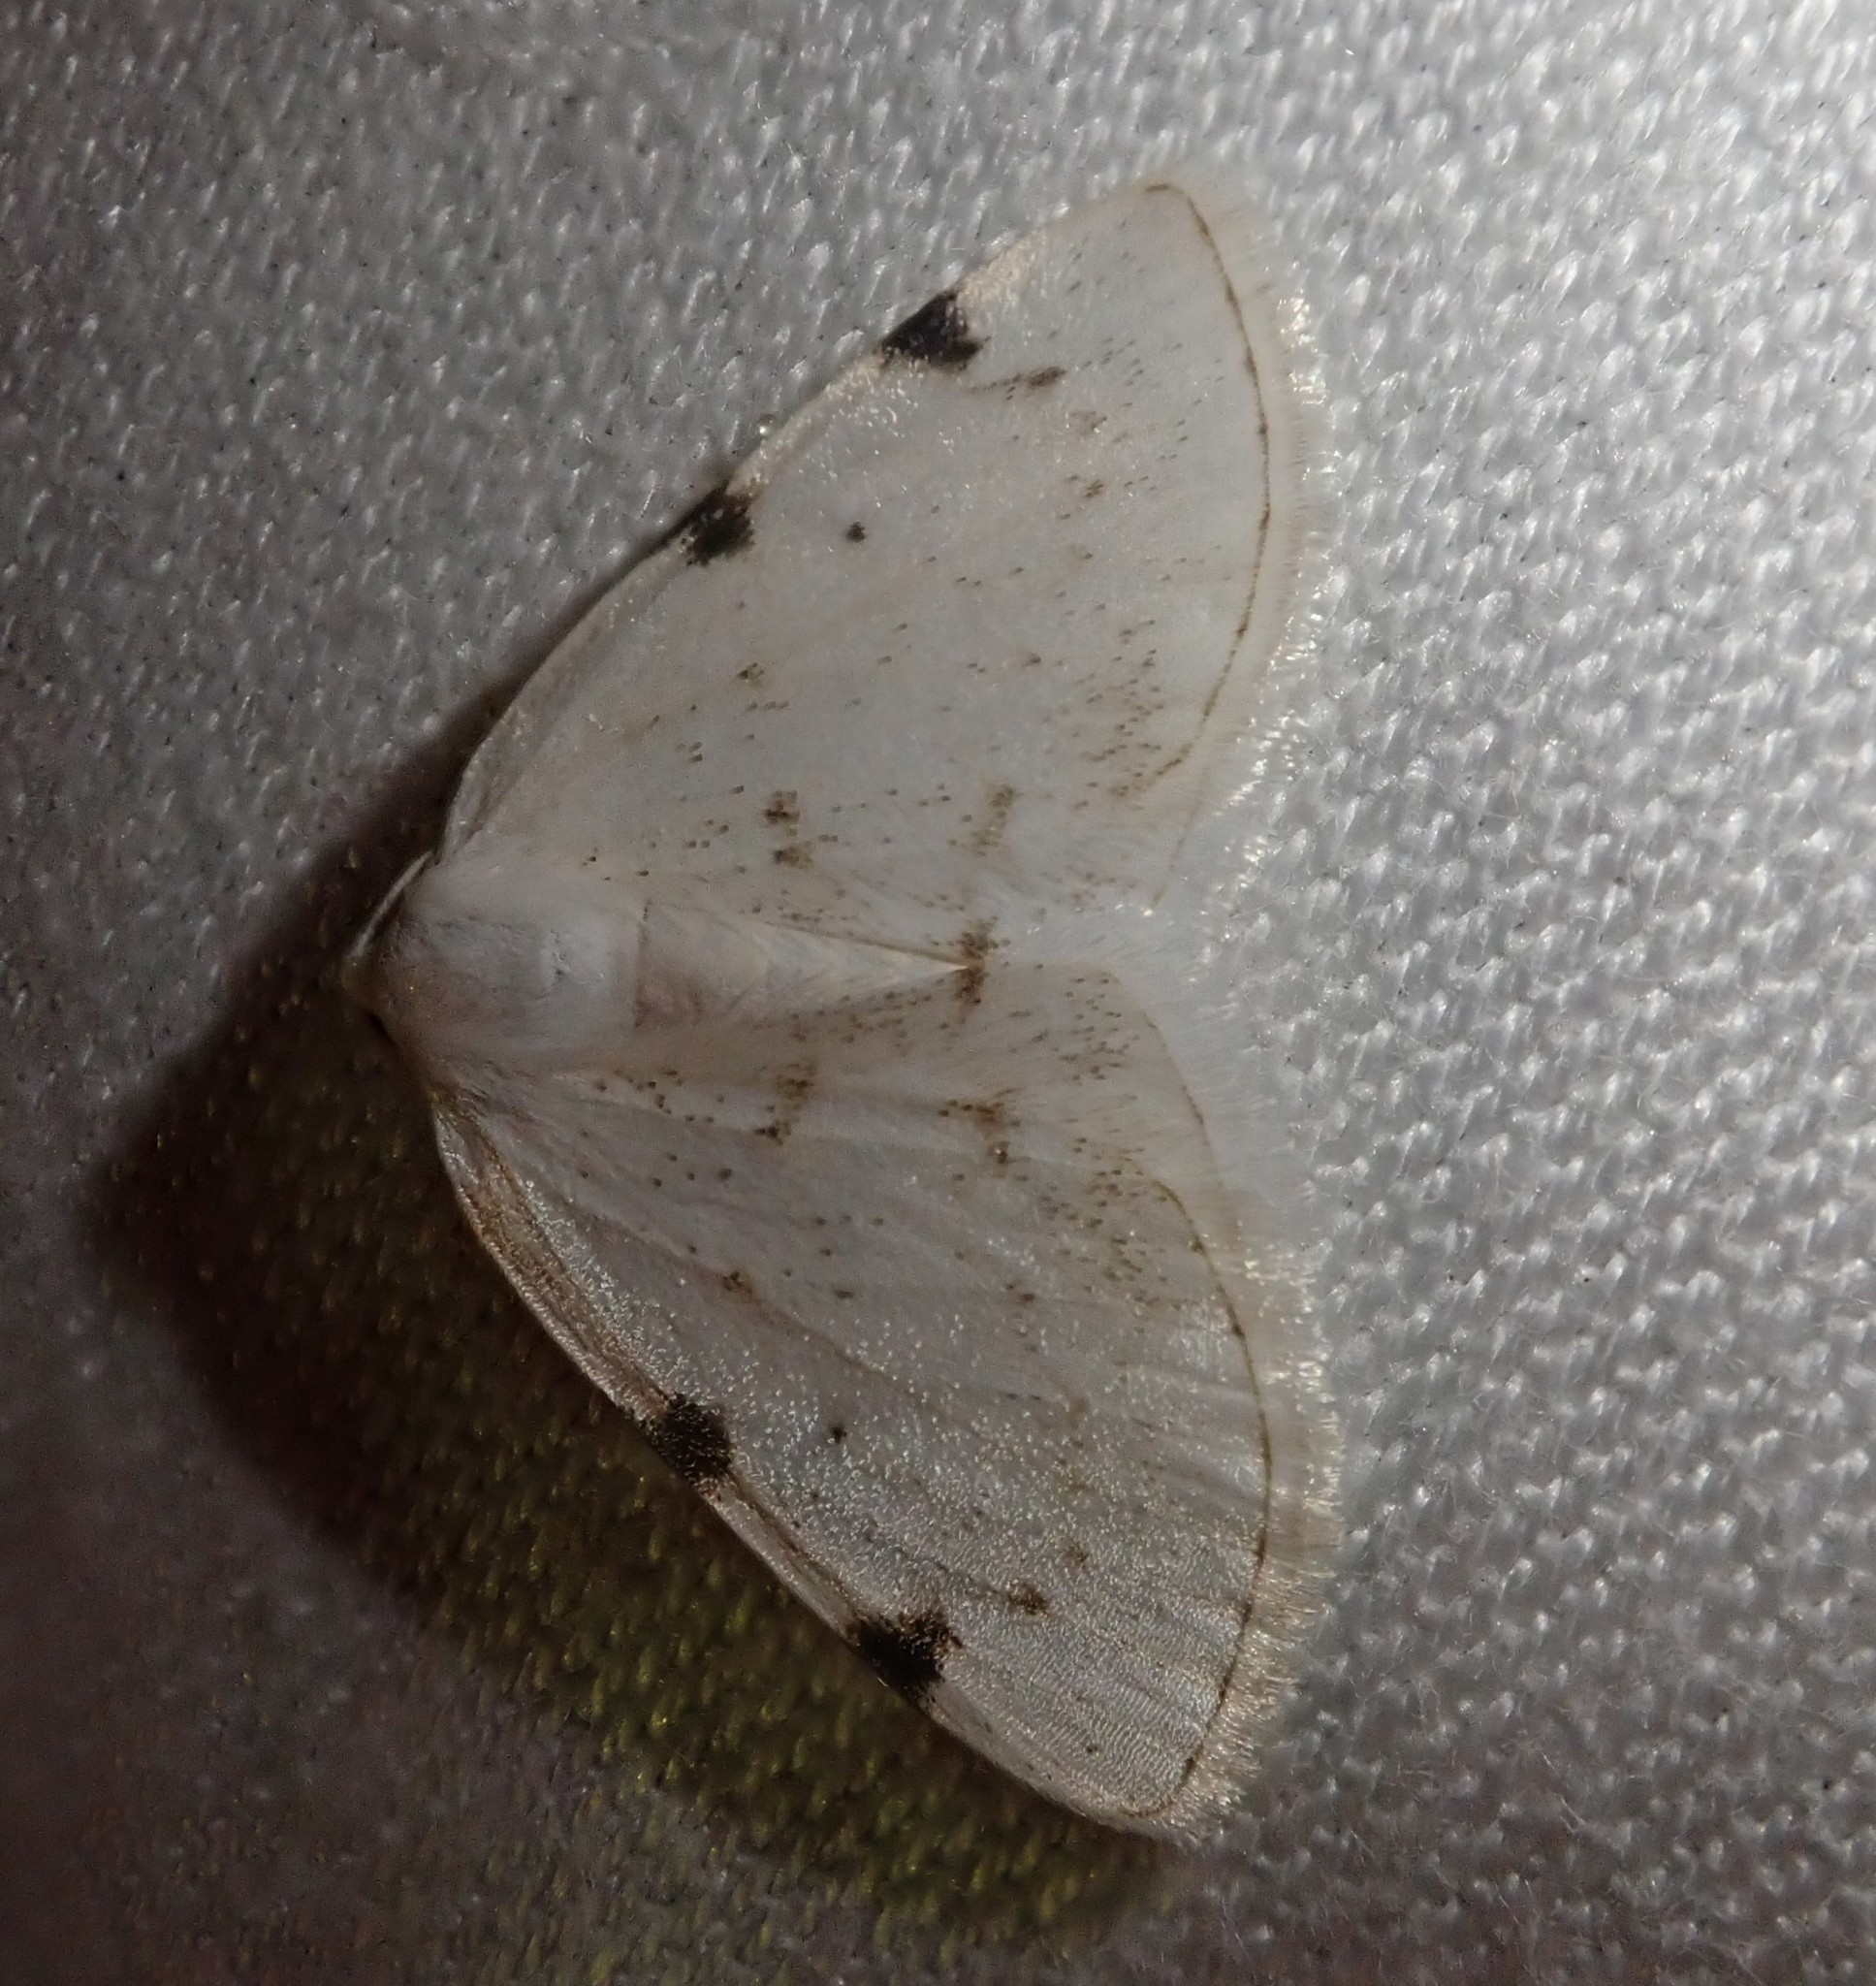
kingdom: Animalia
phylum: Arthropoda
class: Insecta
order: Lepidoptera
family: Geometridae
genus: Lomographa
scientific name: Lomographa bimaculata
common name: White-pinion spotted
